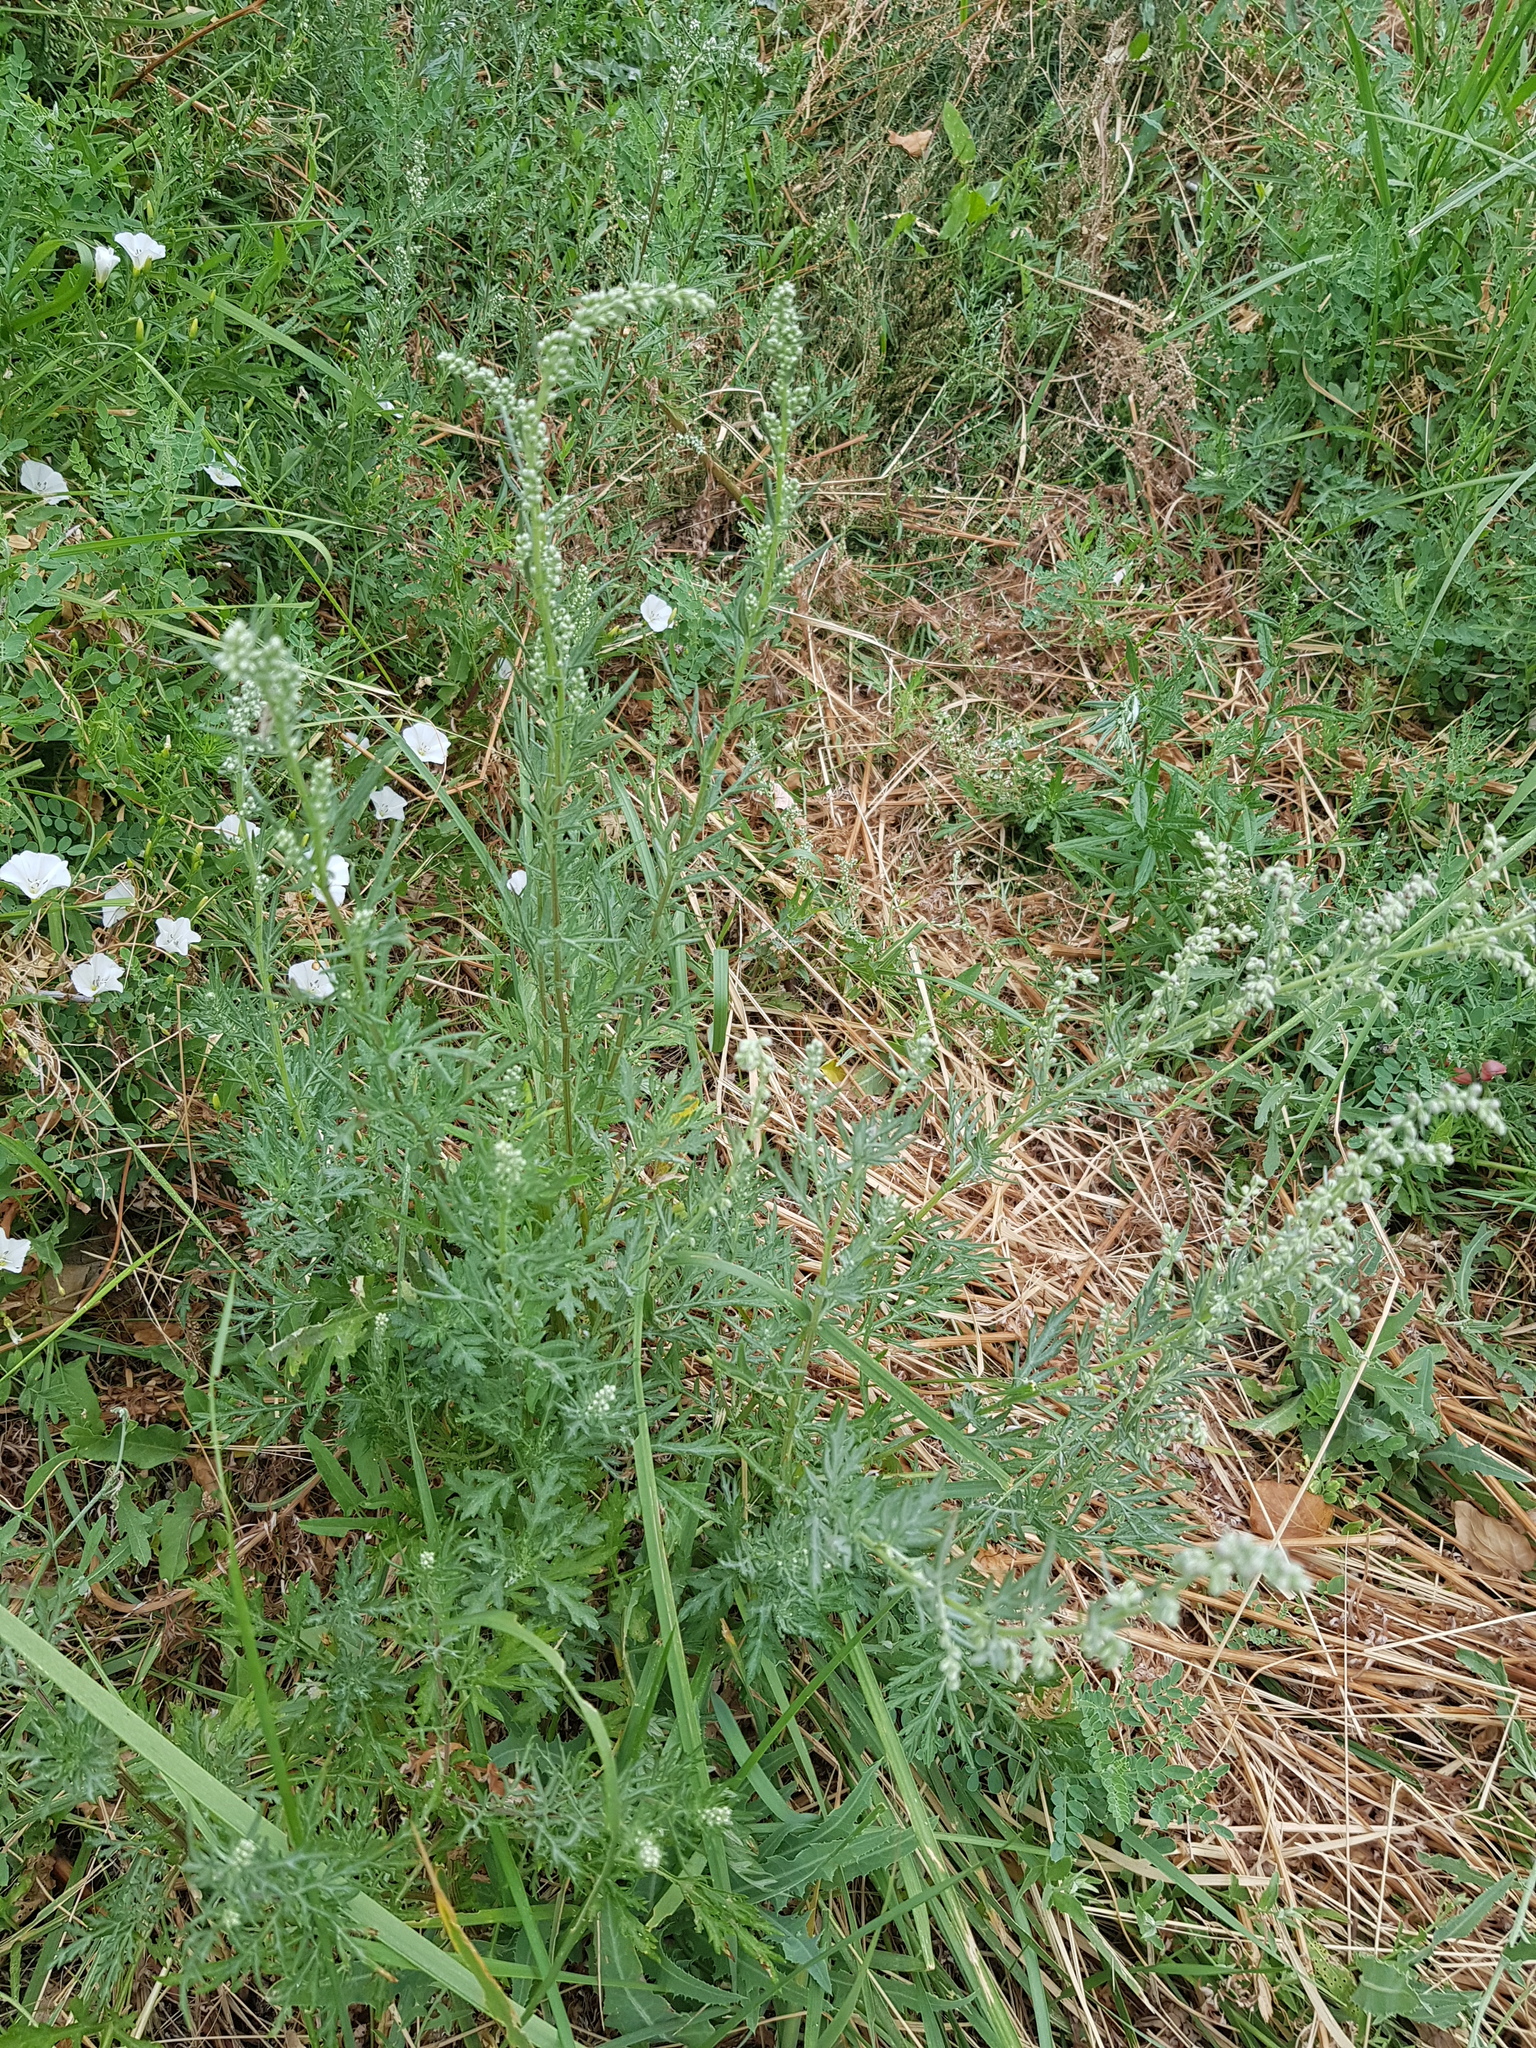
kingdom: Plantae
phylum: Tracheophyta
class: Magnoliopsida
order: Asterales
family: Asteraceae
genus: Artemisia
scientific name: Artemisia sieversiana
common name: Sieversian wormwood
